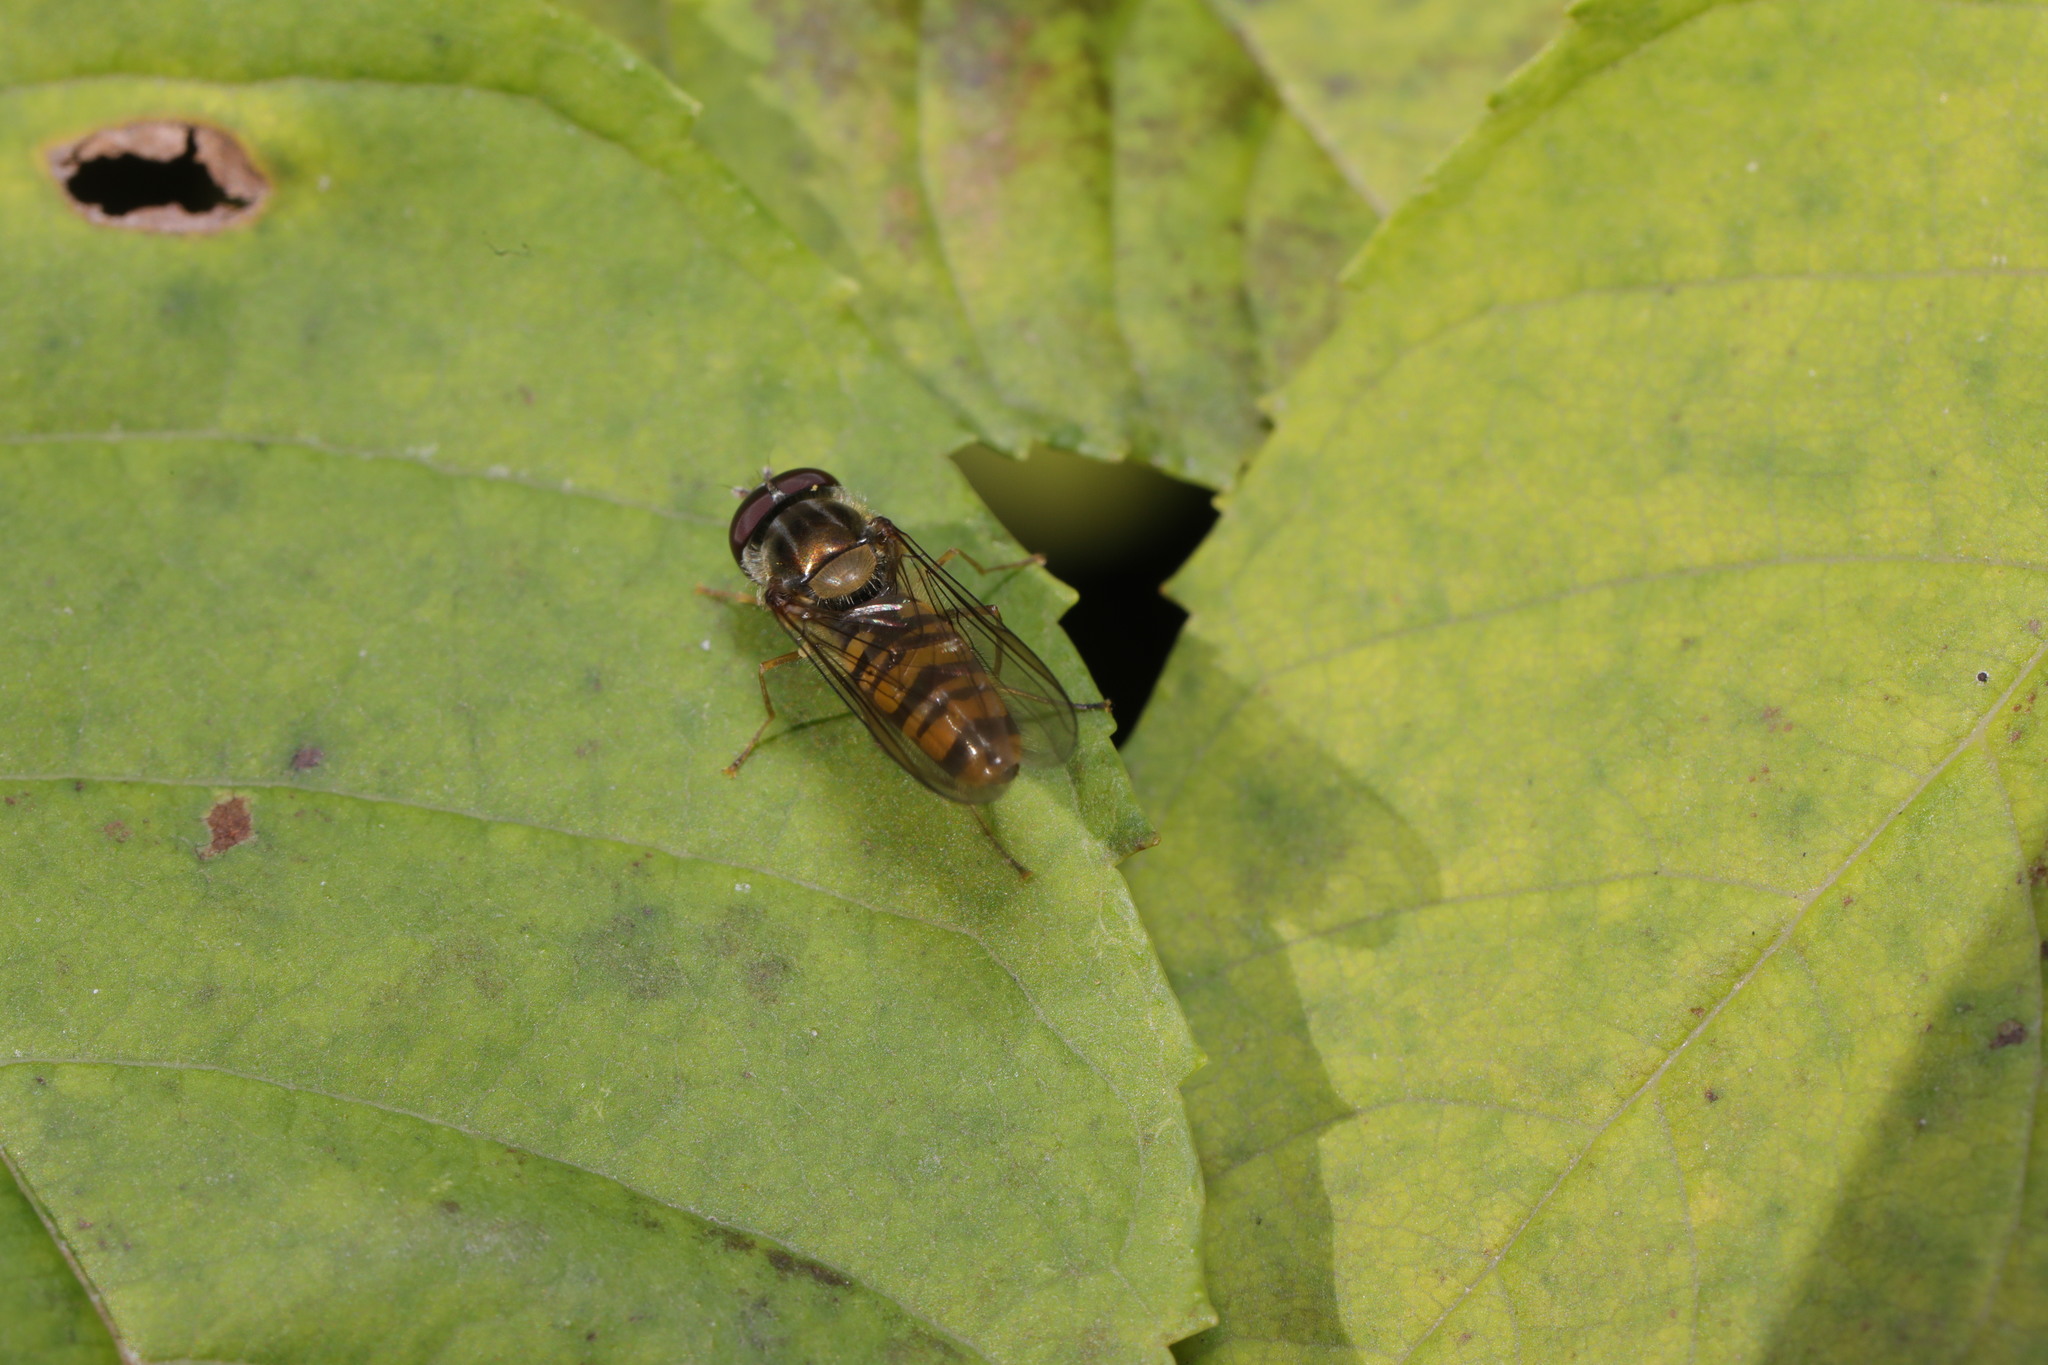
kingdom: Animalia
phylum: Arthropoda
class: Insecta
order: Diptera
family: Syrphidae
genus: Episyrphus
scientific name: Episyrphus balteatus
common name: Marmalade hoverfly
